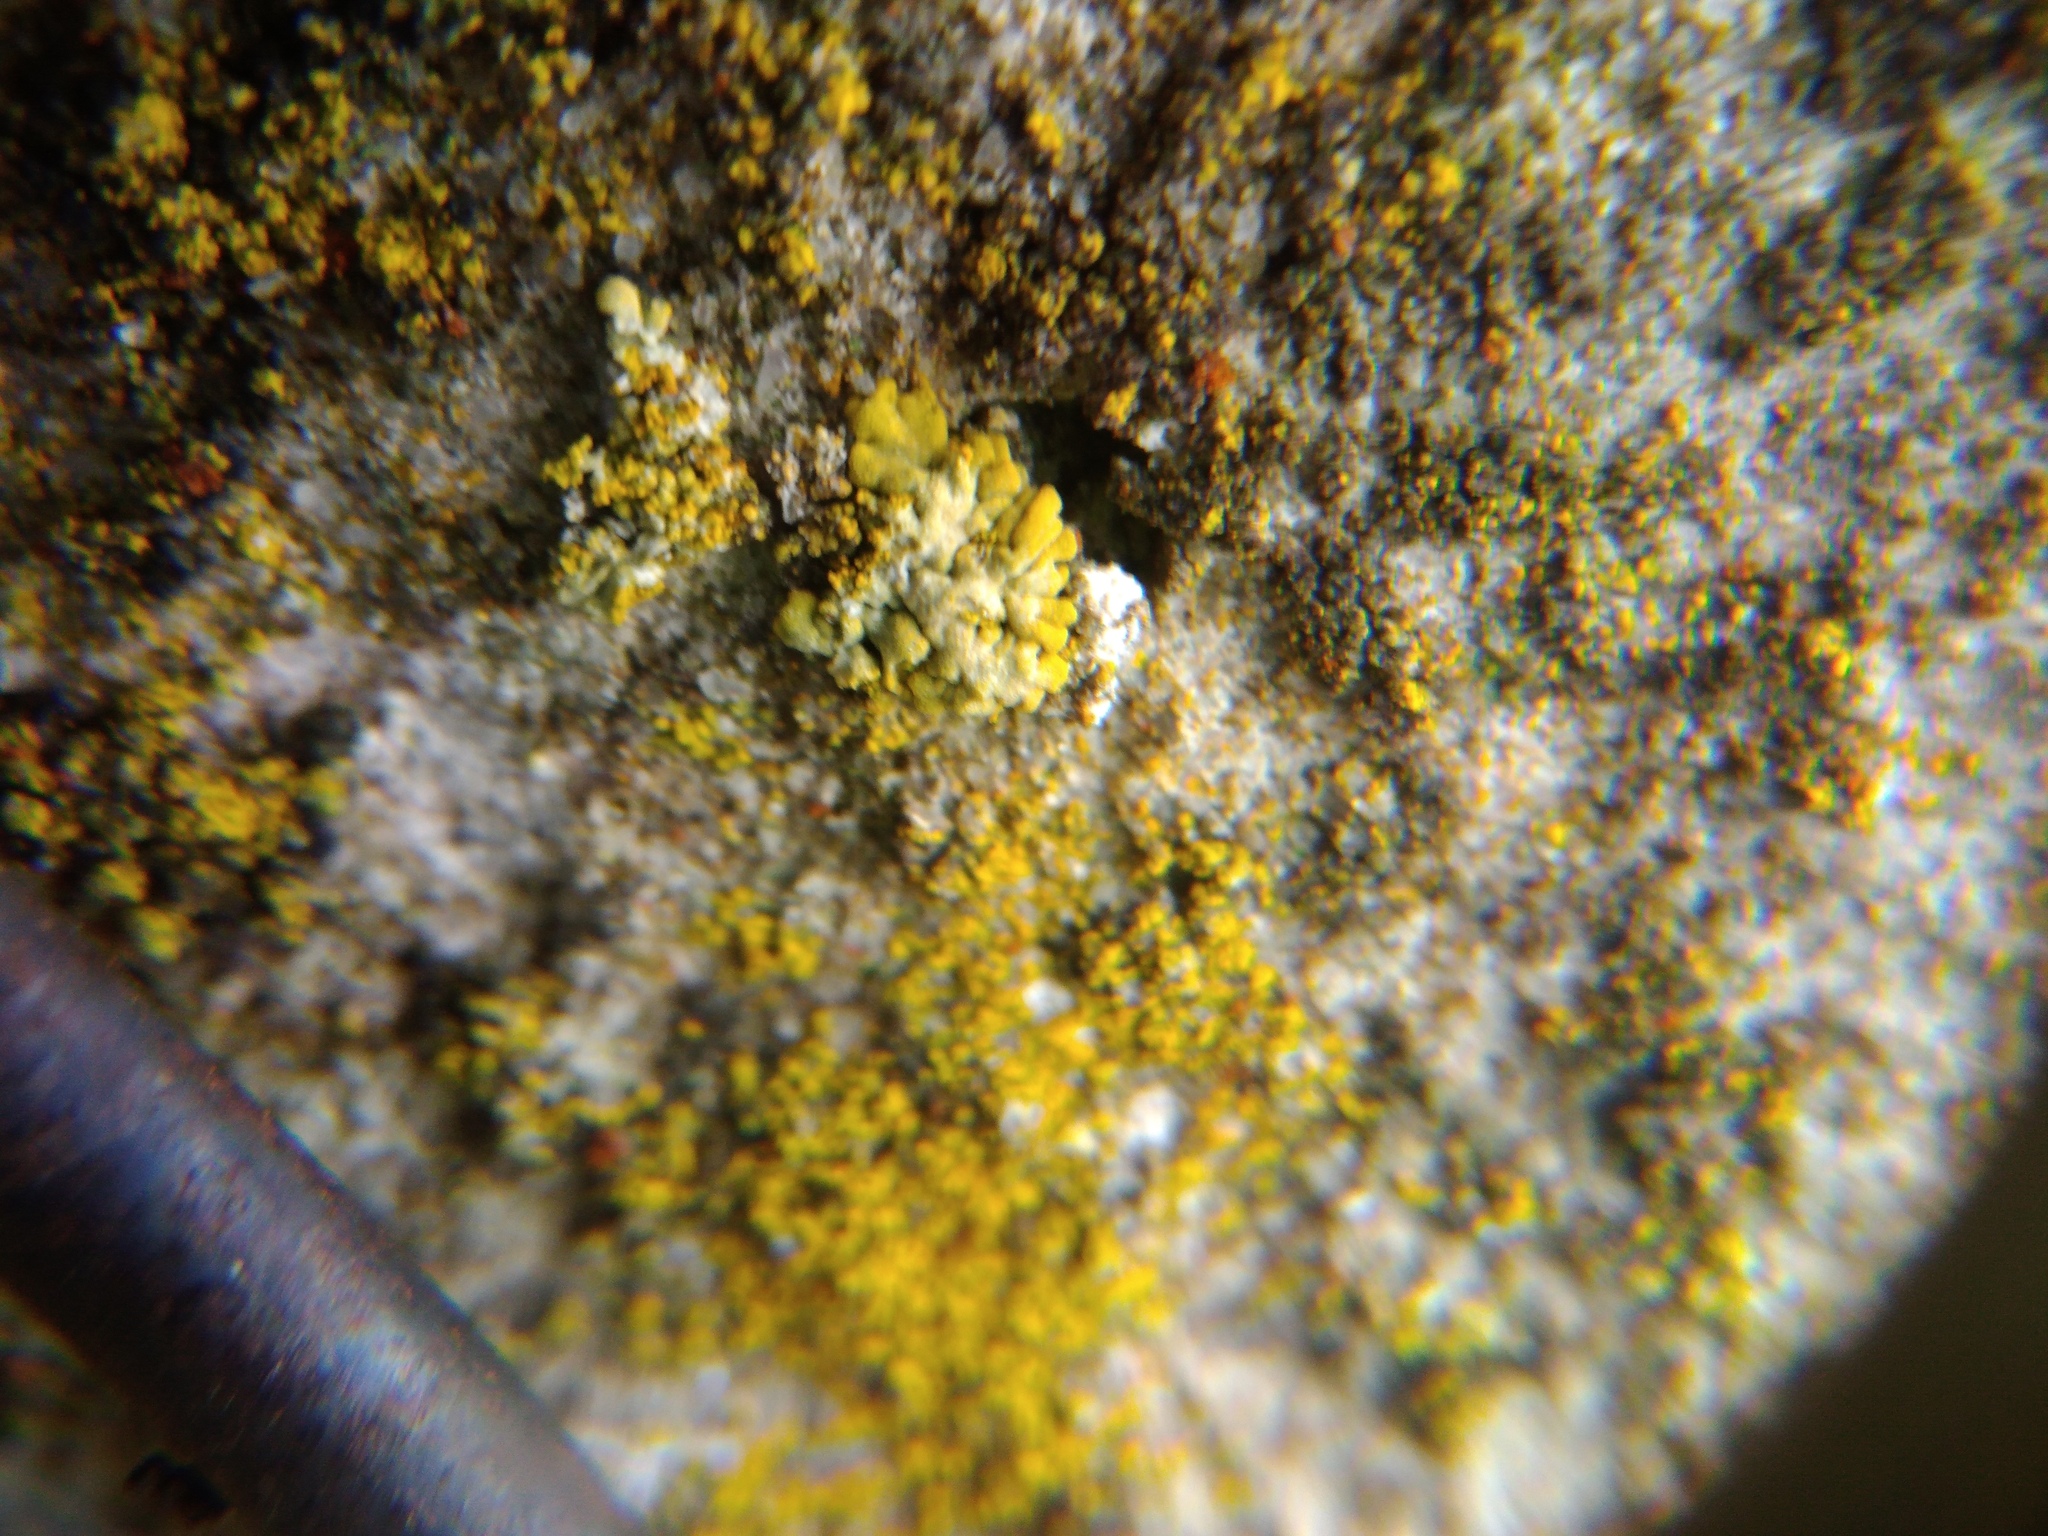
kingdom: Fungi
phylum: Ascomycota
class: Lecanoromycetes
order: Teloschistales
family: Teloschistaceae
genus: Calogaya
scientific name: Calogaya decipiens
